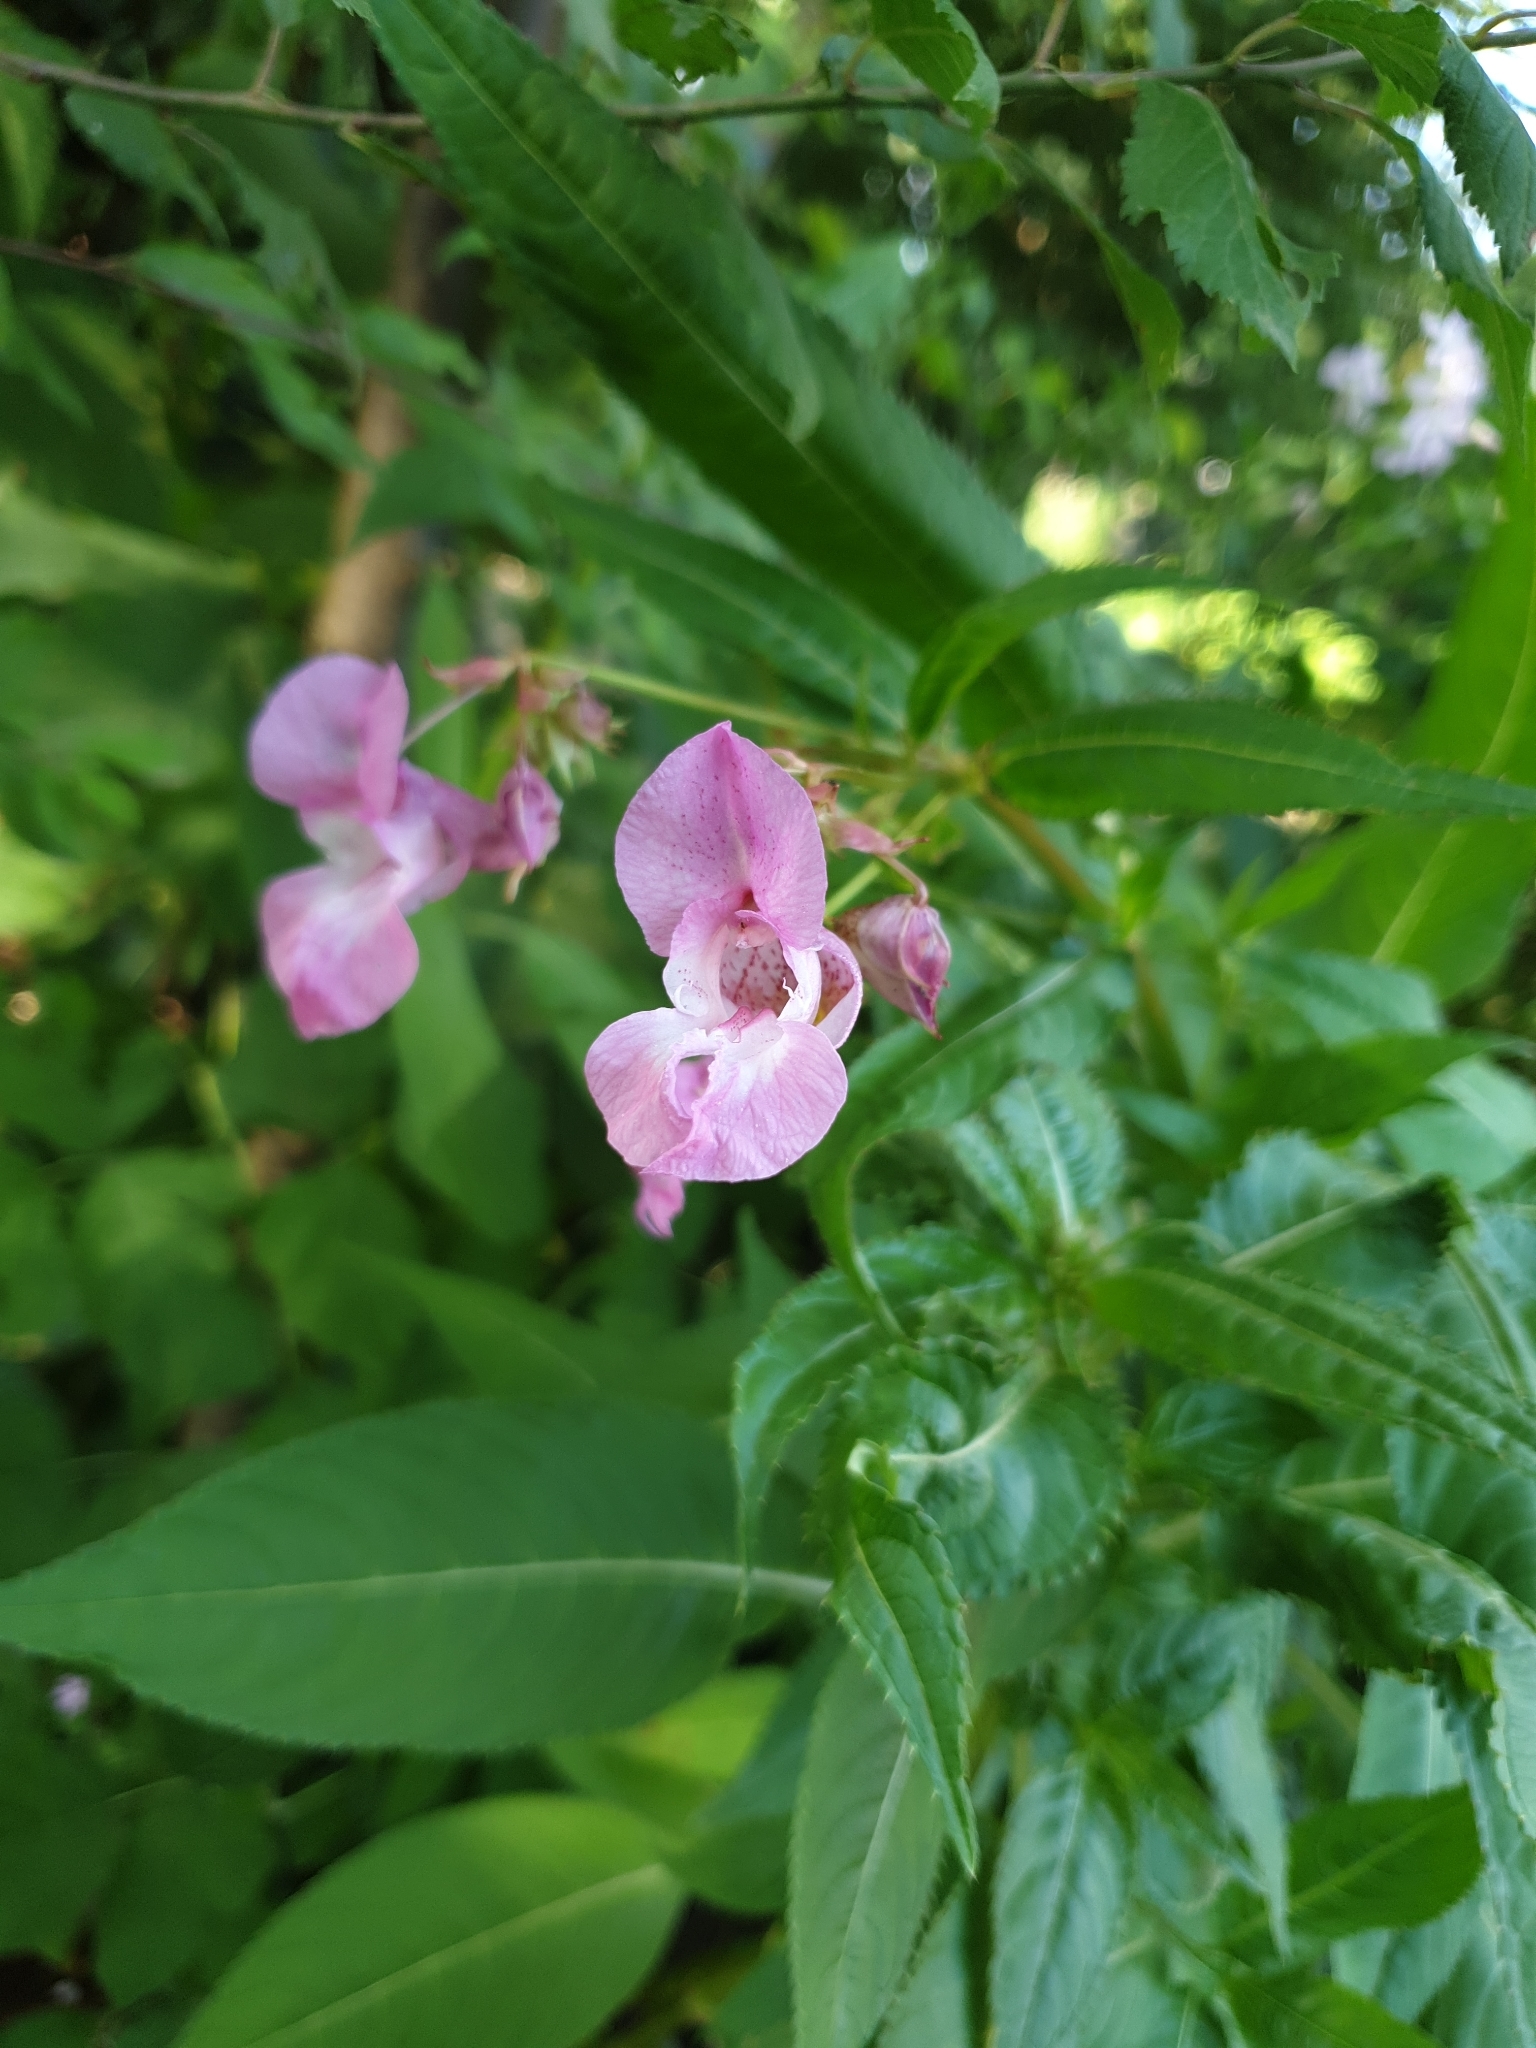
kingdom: Plantae
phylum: Tracheophyta
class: Magnoliopsida
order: Ericales
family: Balsaminaceae
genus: Impatiens
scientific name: Impatiens glandulifera
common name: Himalayan balsam
